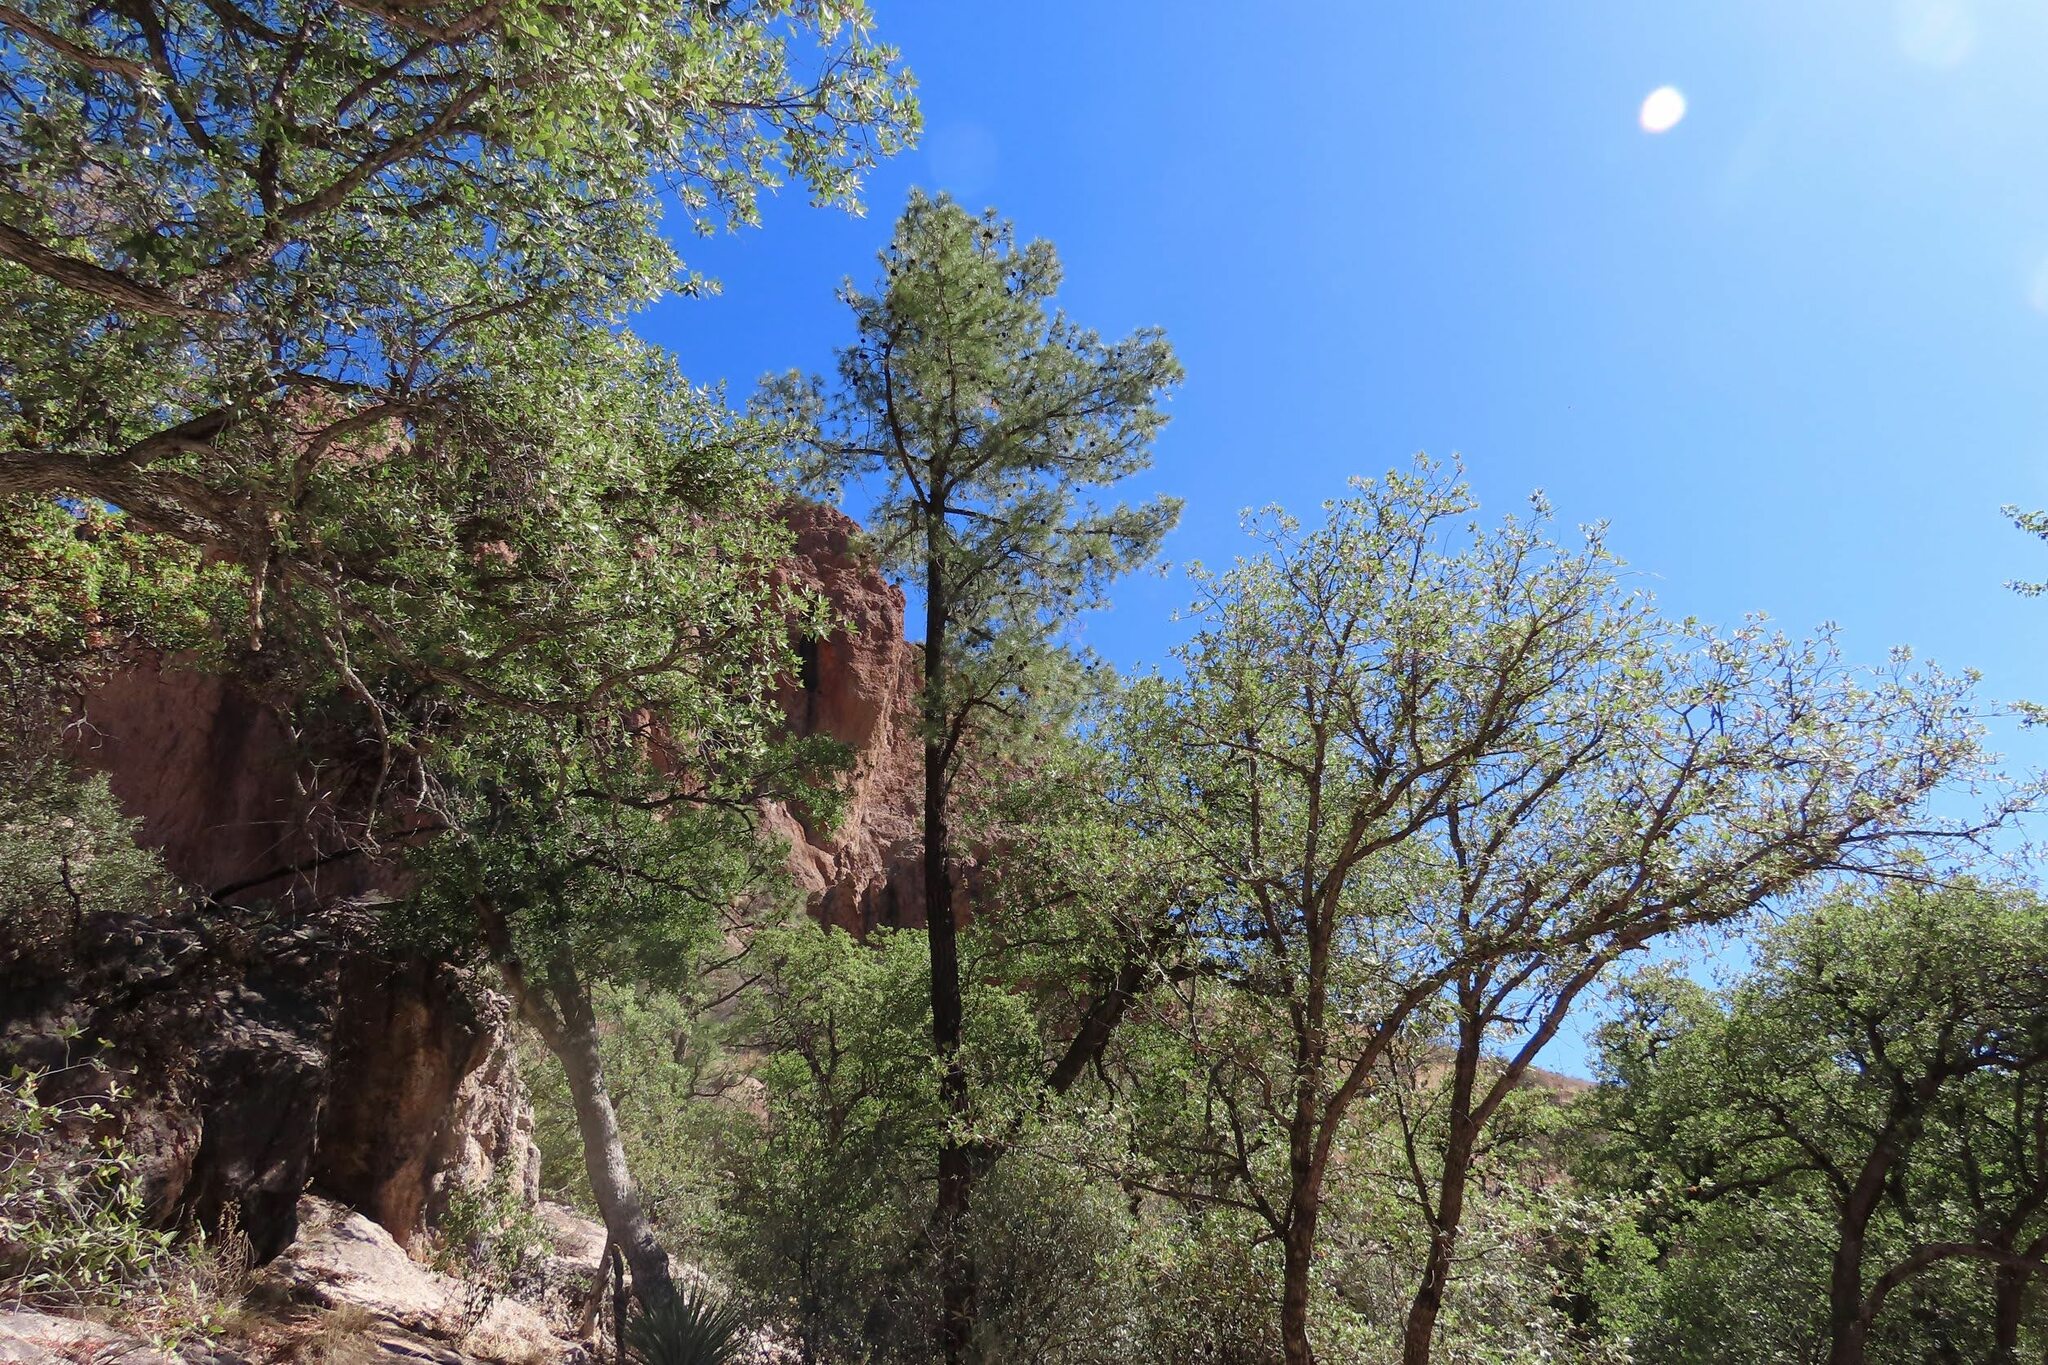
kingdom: Plantae
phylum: Tracheophyta
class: Pinopsida
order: Pinales
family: Pinaceae
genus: Pinus
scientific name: Pinus leiophylla
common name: Chihuahua pine
